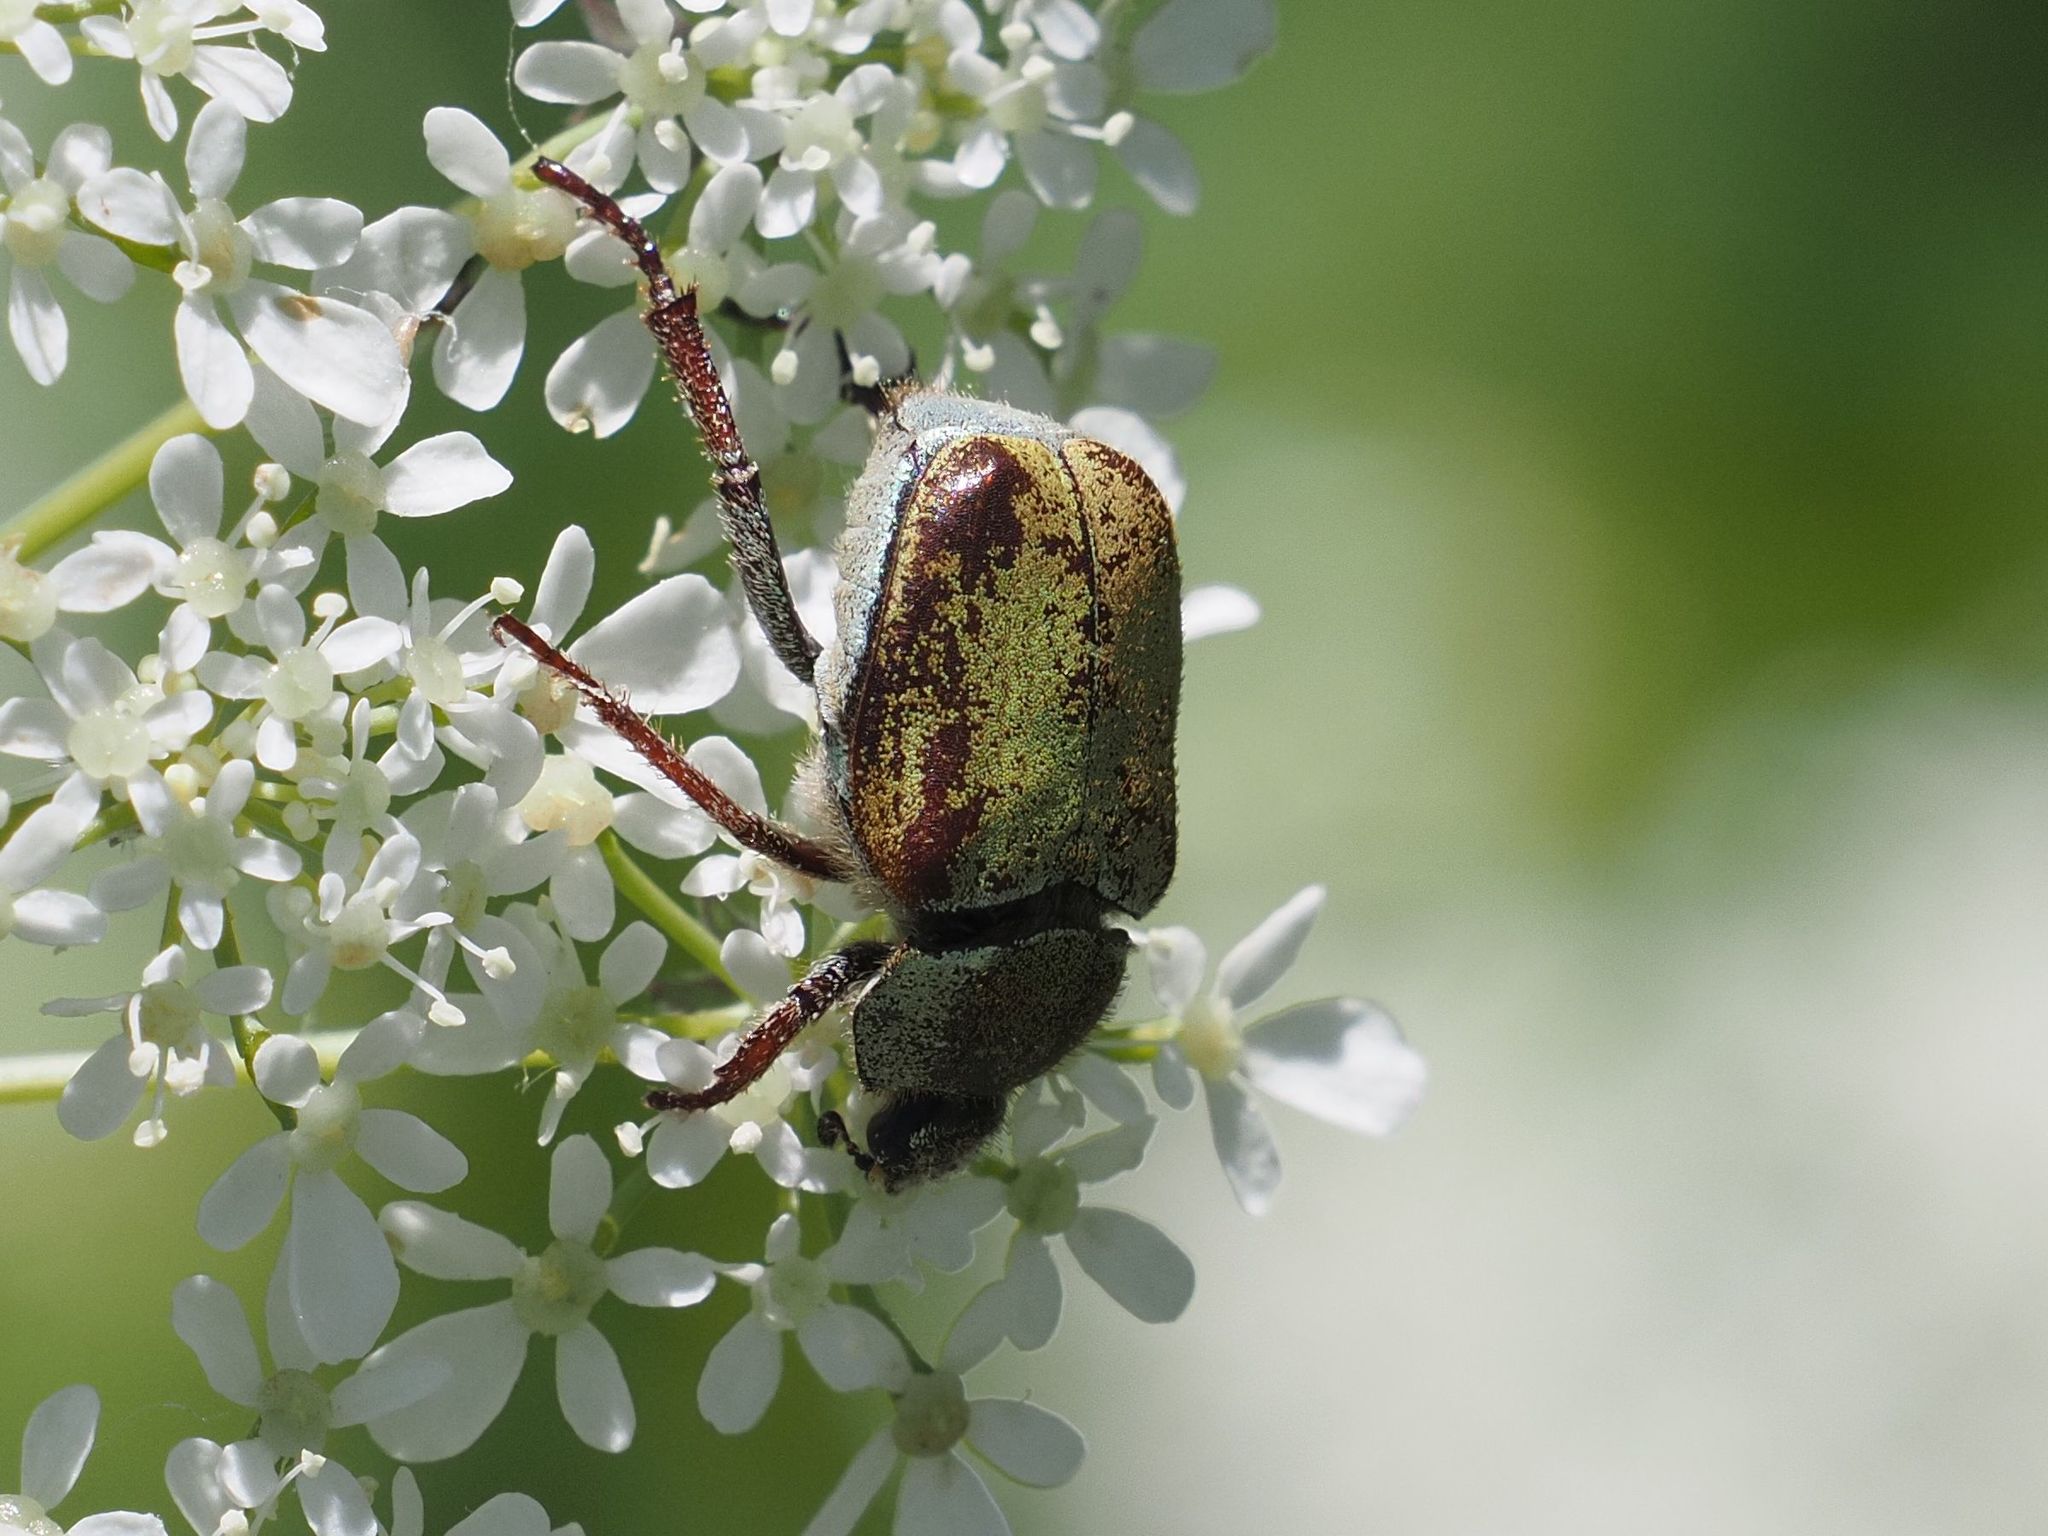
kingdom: Animalia
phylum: Arthropoda
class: Insecta
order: Coleoptera
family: Scarabaeidae
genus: Hoplia
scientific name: Hoplia argentea
